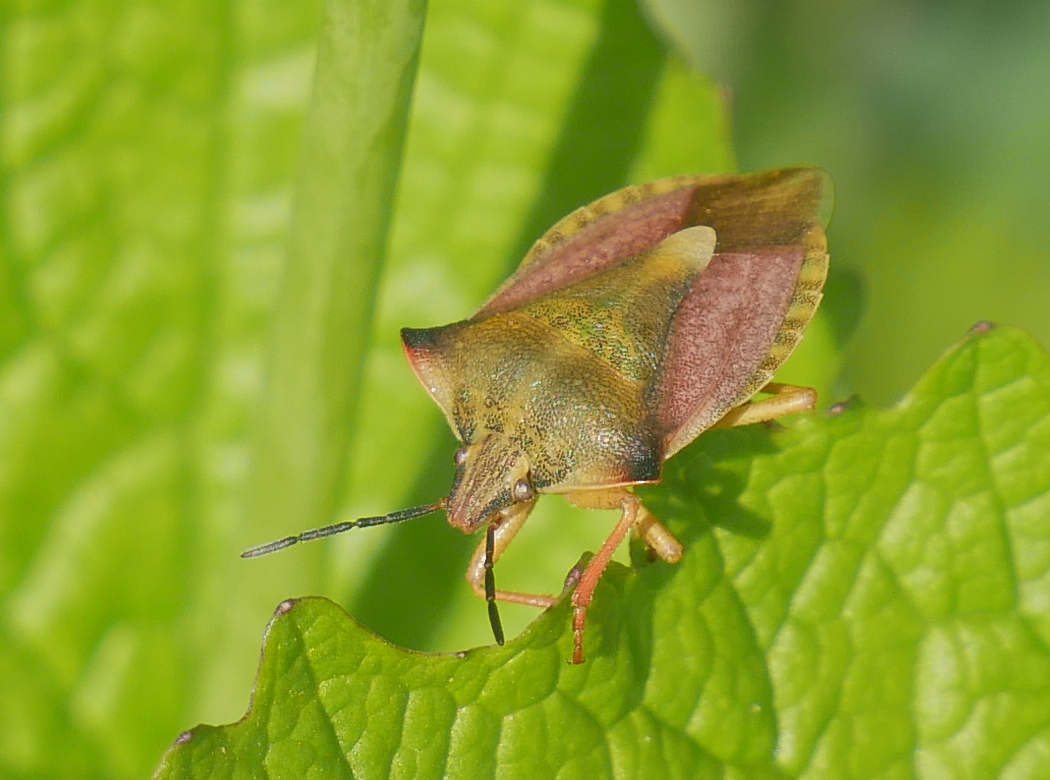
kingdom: Animalia
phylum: Arthropoda
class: Insecta
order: Hemiptera
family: Pentatomidae
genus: Carpocoris
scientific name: Carpocoris fuscispinus
